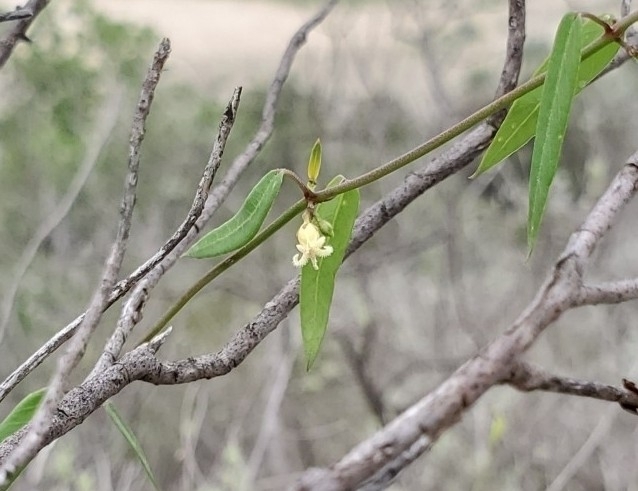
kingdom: Plantae
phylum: Tracheophyta
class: Magnoliopsida
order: Gentianales
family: Apocynaceae
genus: Metastelma
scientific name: Metastelma barbigerum
